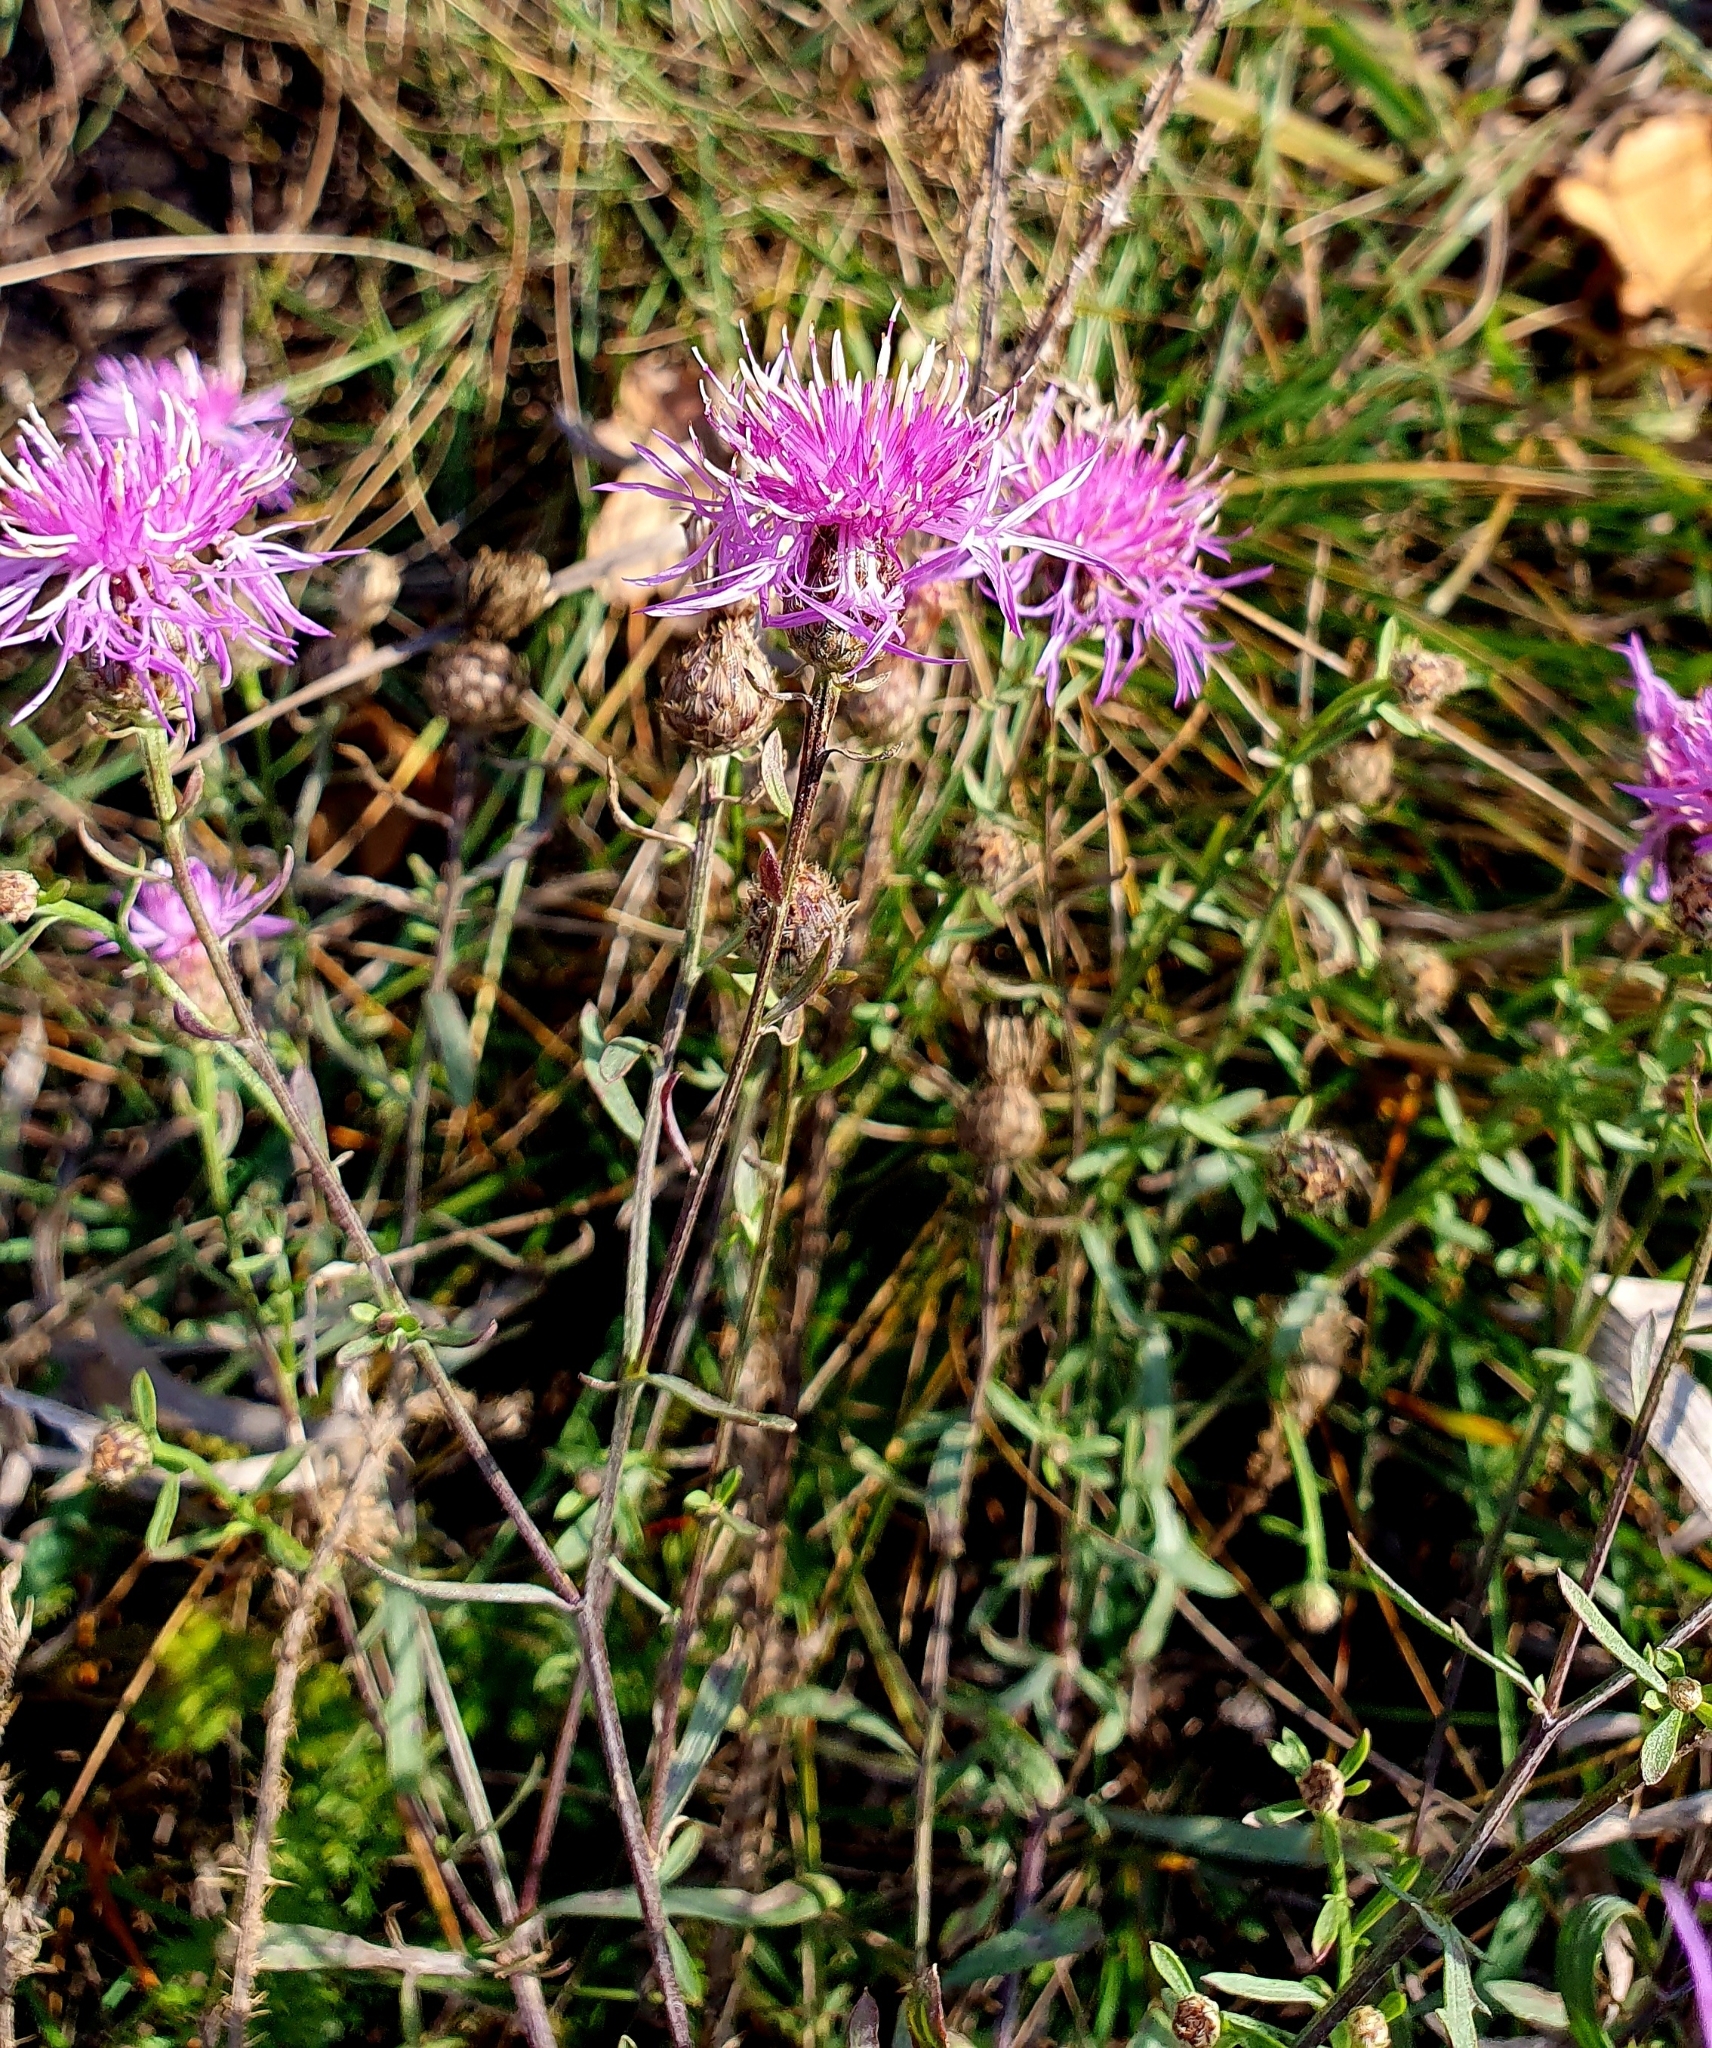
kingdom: Plantae
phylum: Tracheophyta
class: Magnoliopsida
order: Asterales
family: Asteraceae
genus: Centaurea
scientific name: Centaurea stoebe
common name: Spotted knapweed
